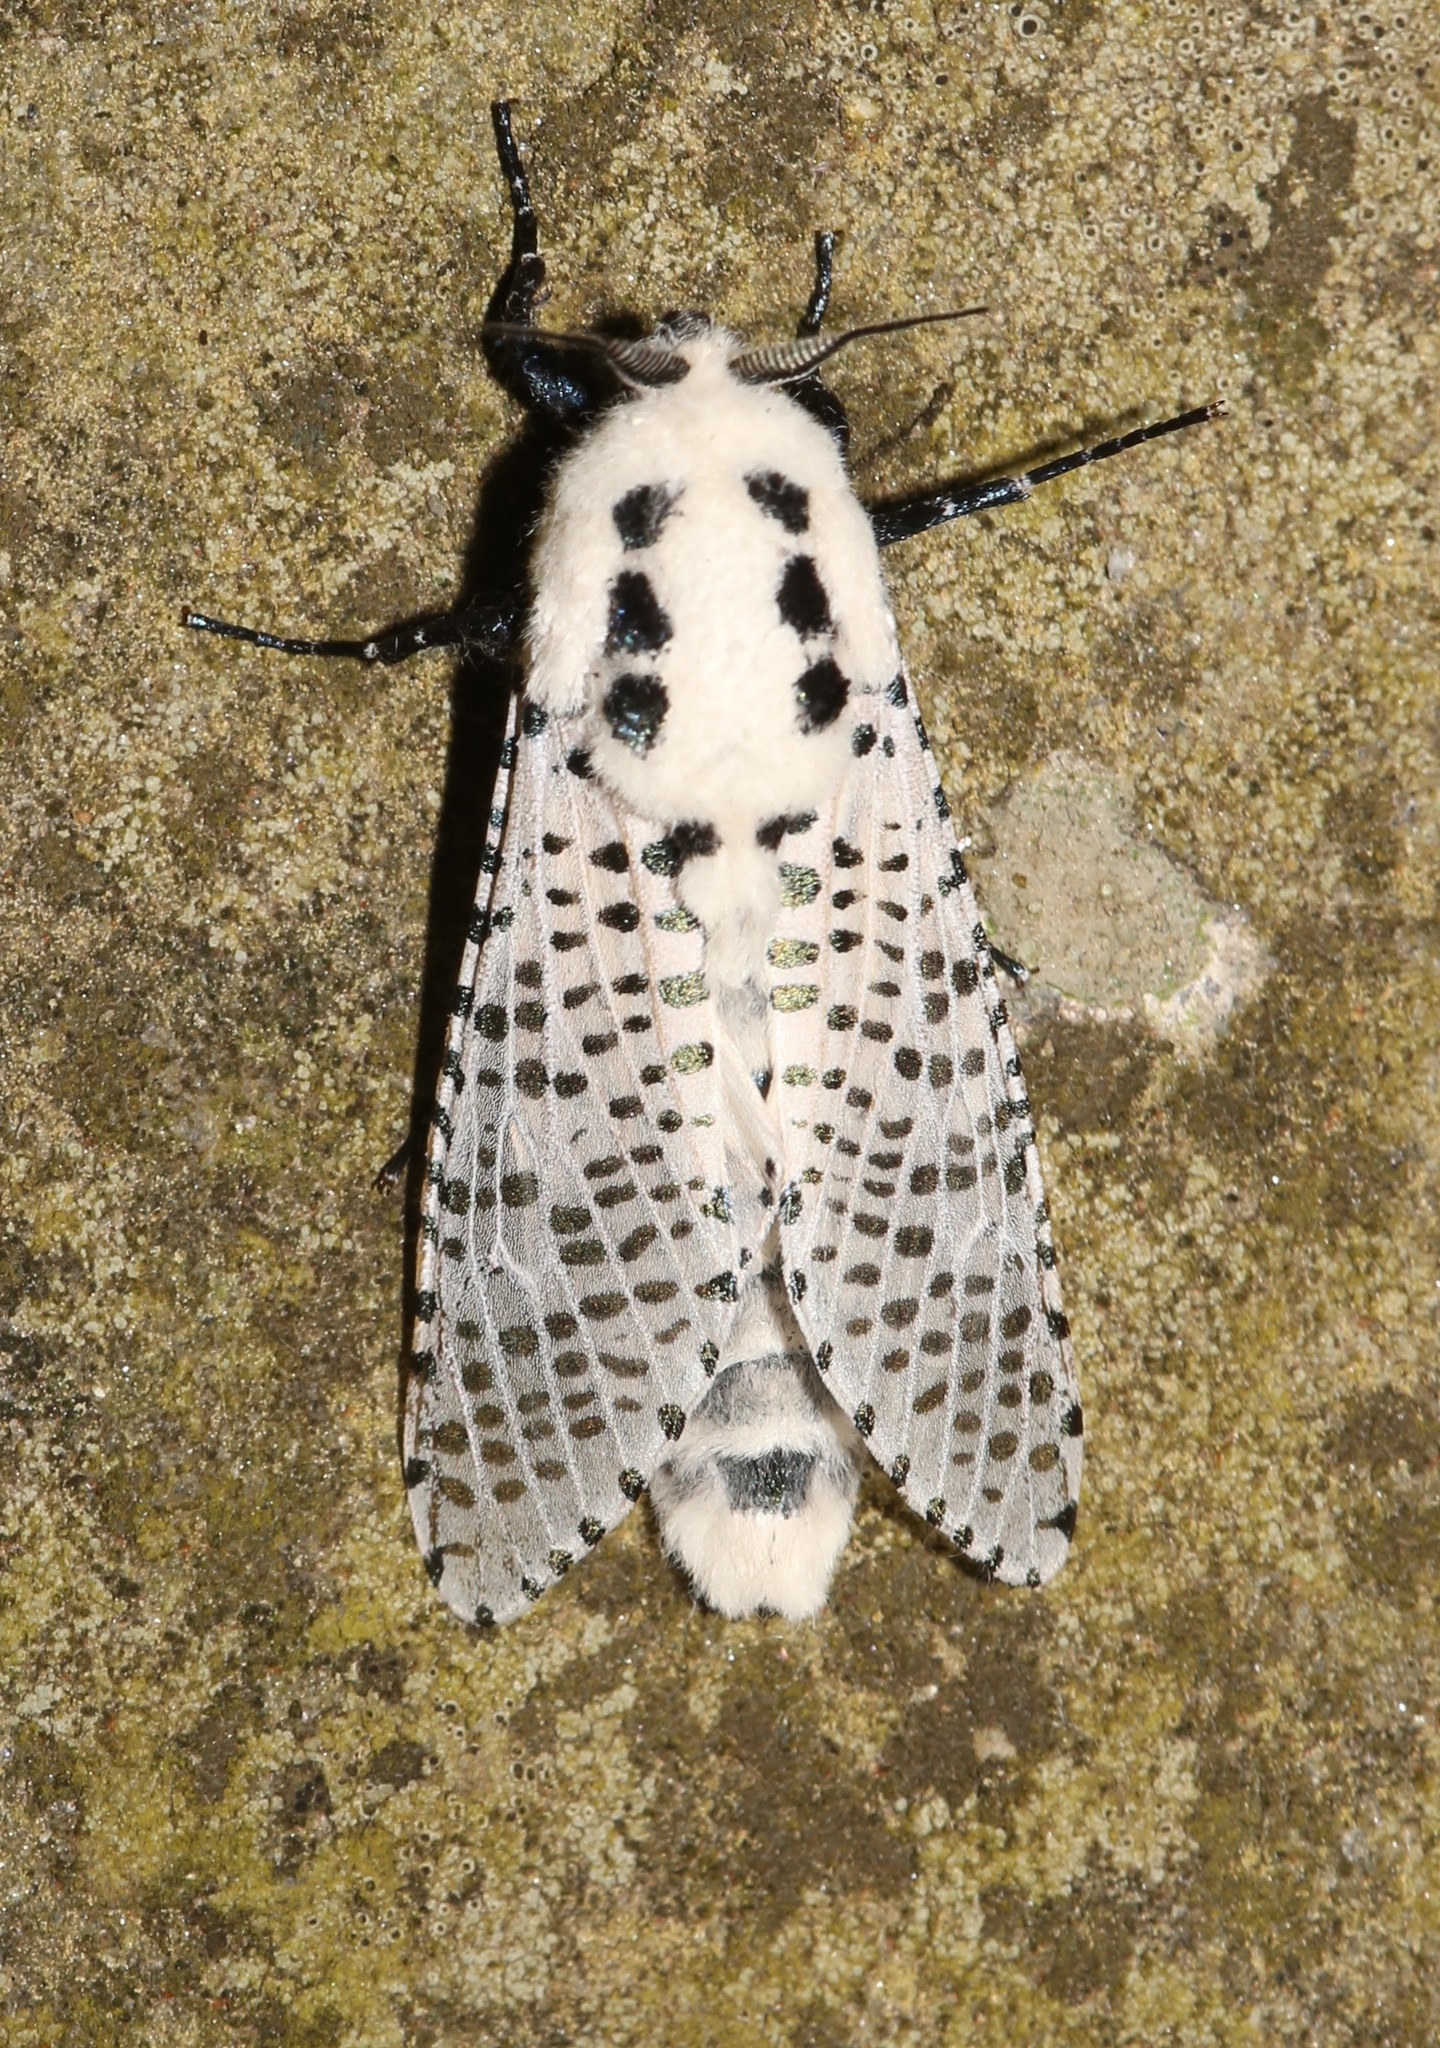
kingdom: Animalia
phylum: Arthropoda
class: Insecta
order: Lepidoptera
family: Cossidae
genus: Zeuzera
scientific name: Zeuzera pyrina
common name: Leopard moth
